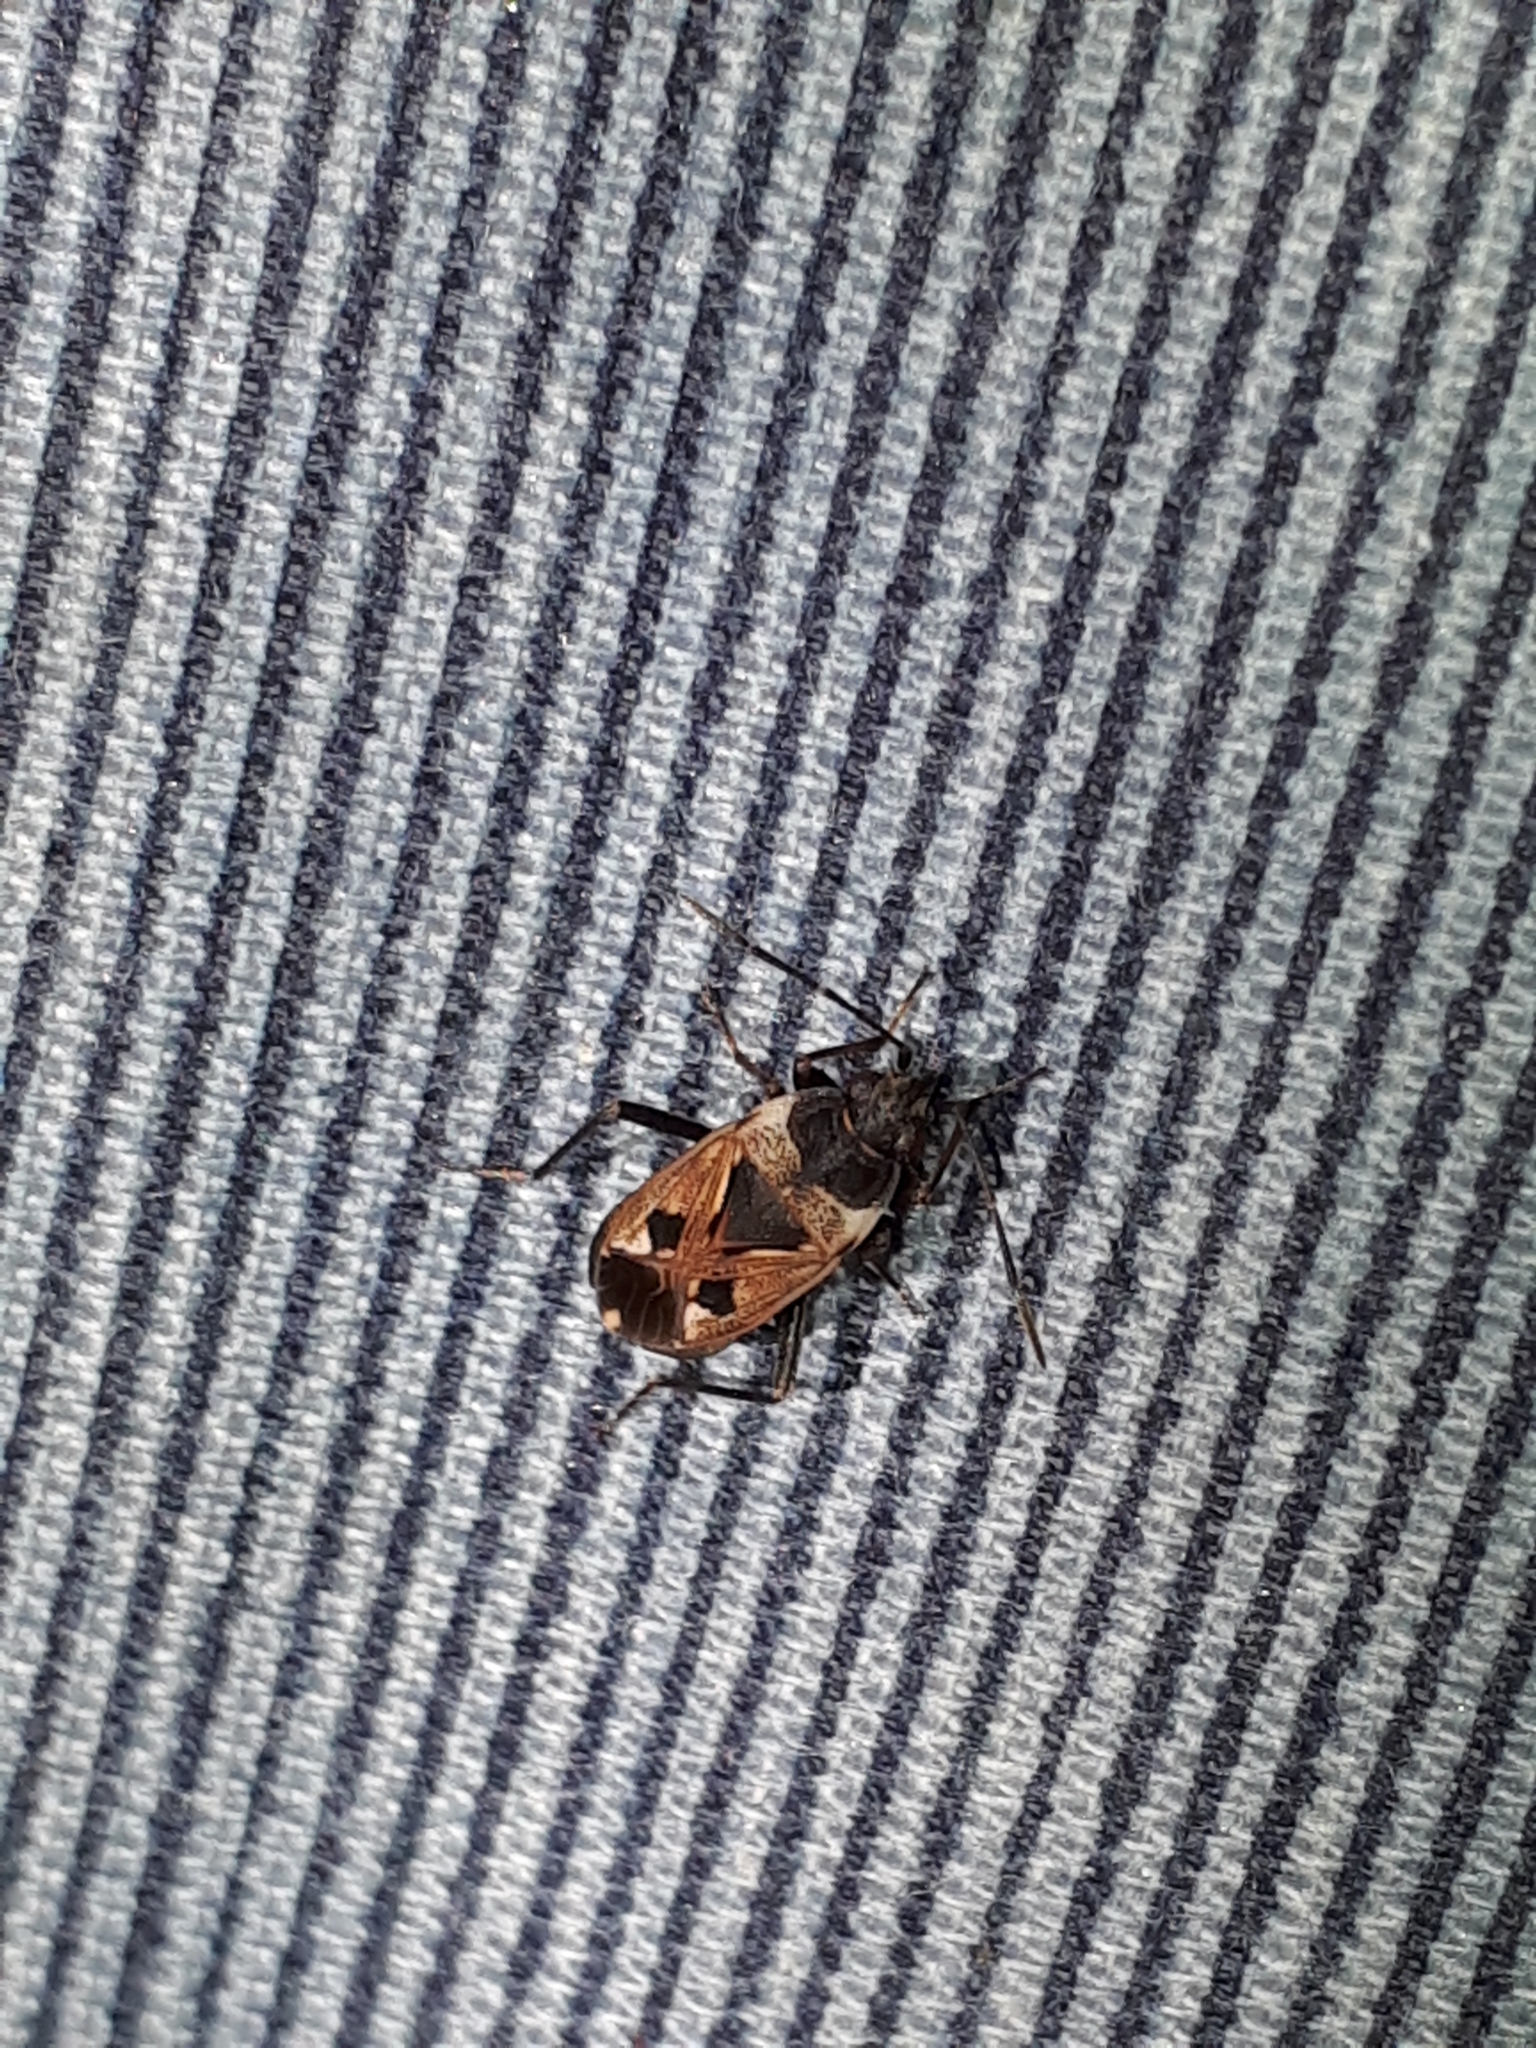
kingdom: Animalia
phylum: Arthropoda
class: Insecta
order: Hemiptera
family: Rhyparochromidae
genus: Rhyparochromus
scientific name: Rhyparochromus vulgaris
